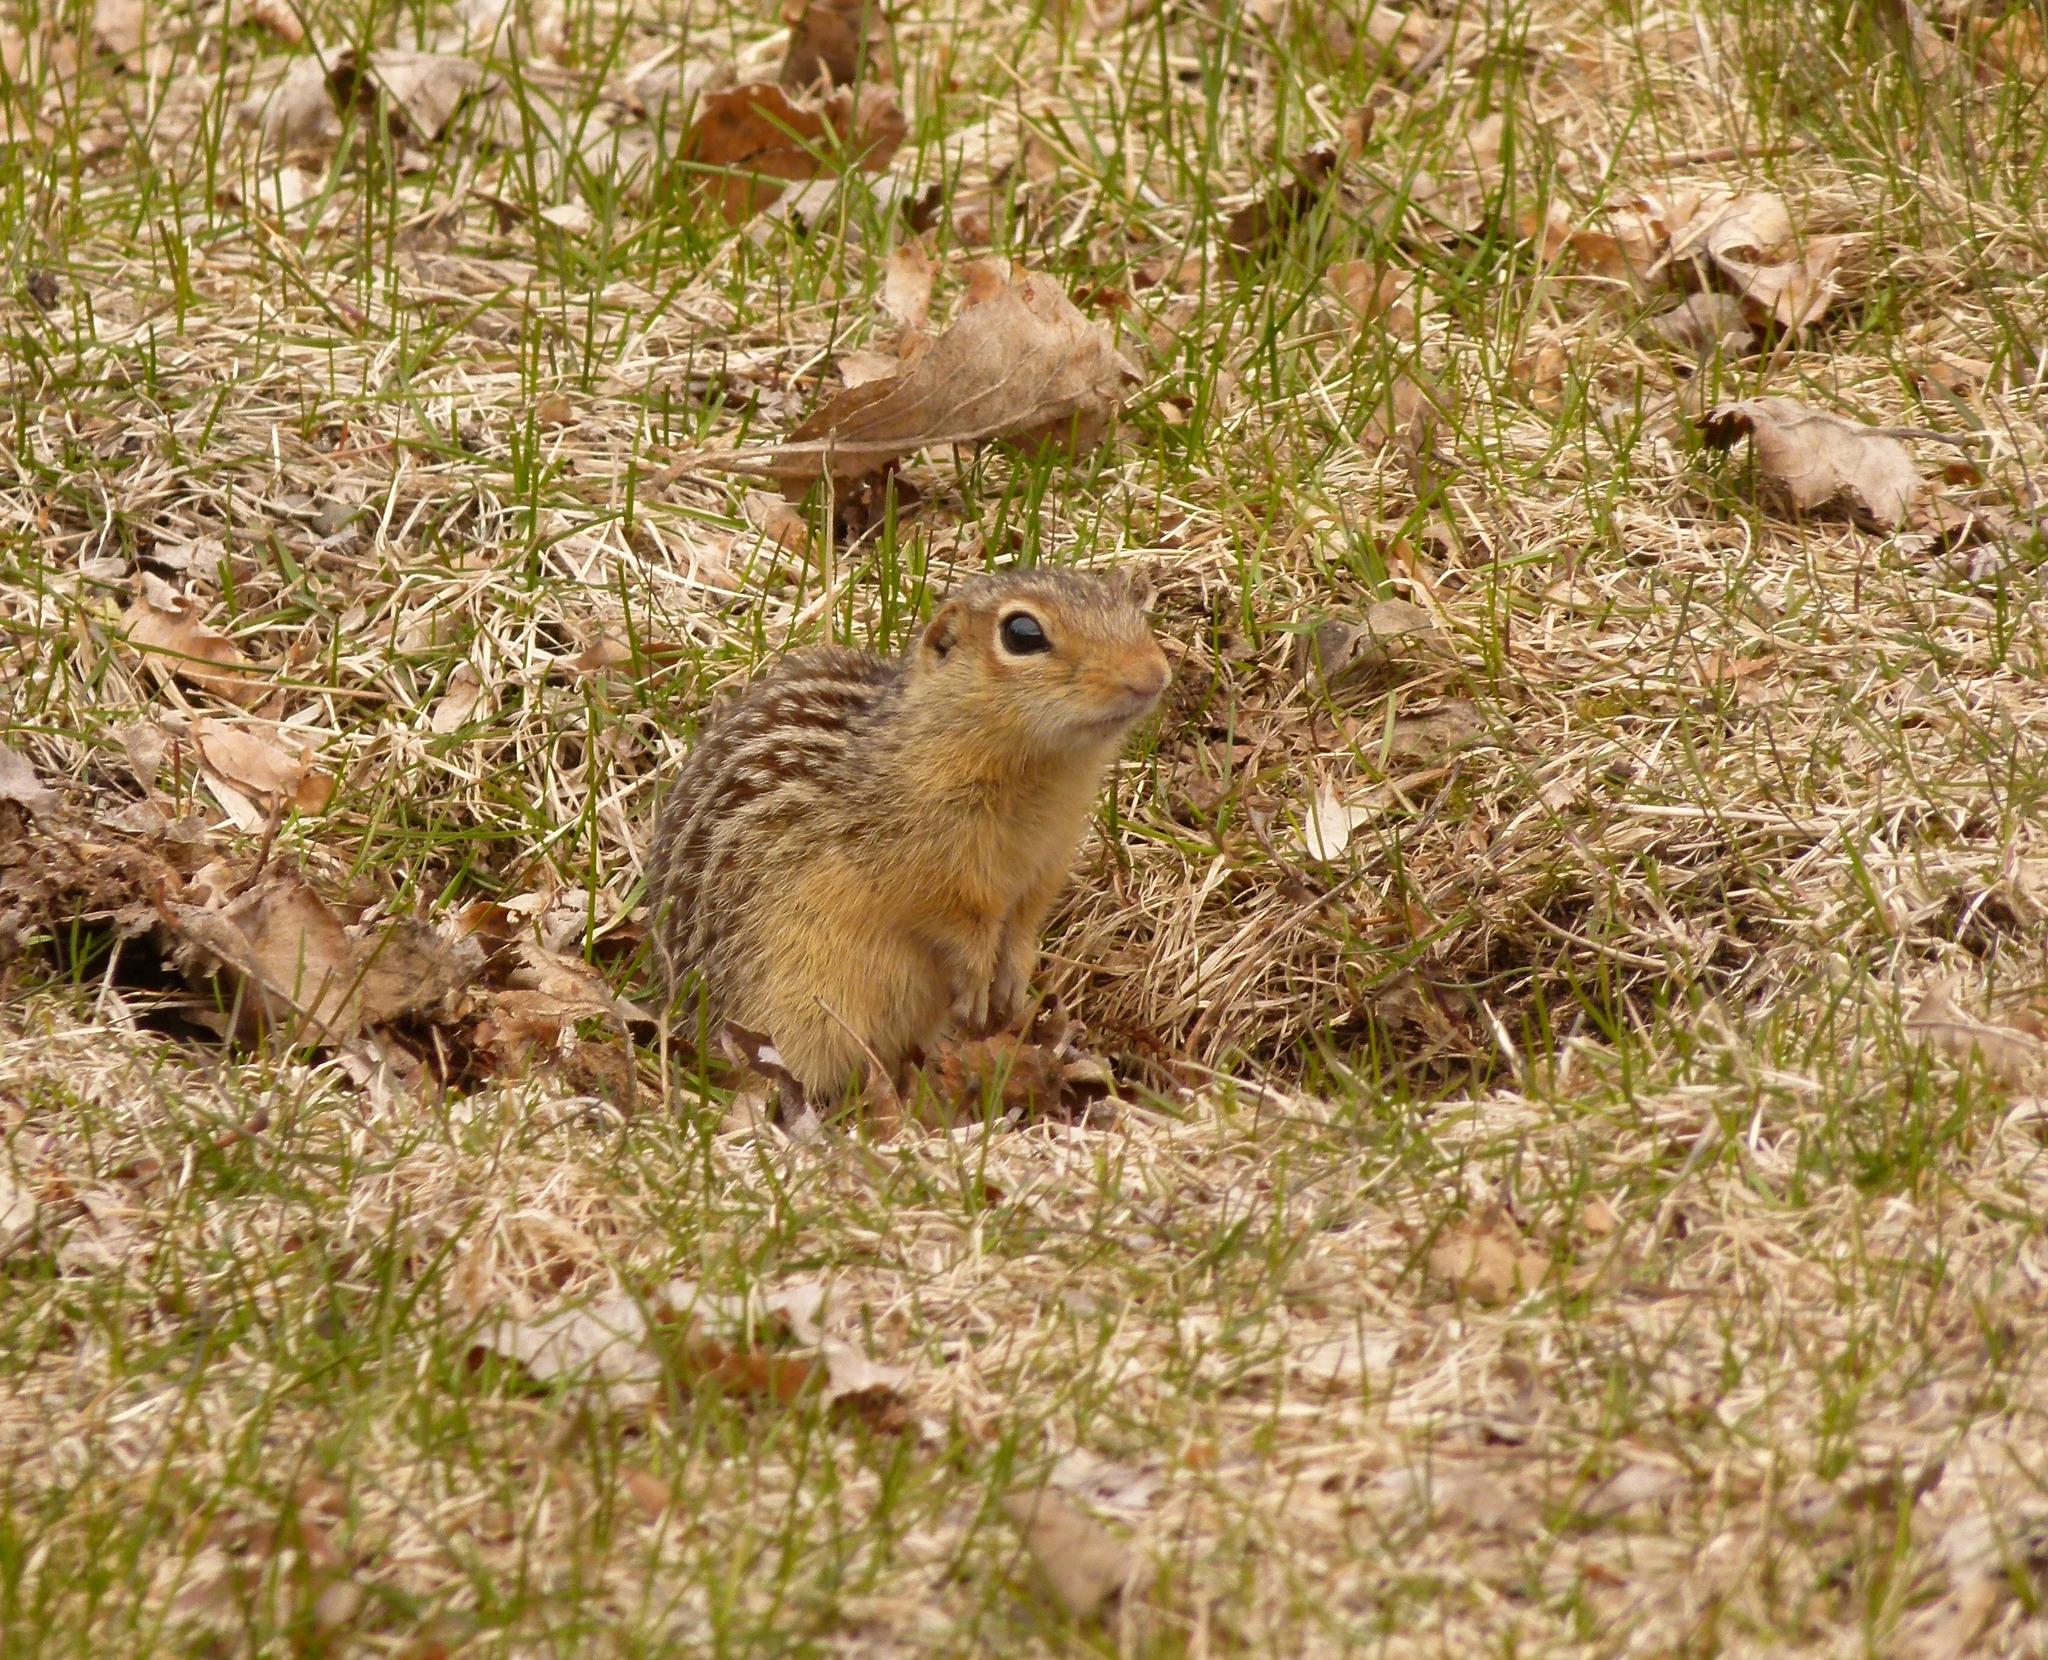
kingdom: Animalia
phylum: Chordata
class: Mammalia
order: Rodentia
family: Sciuridae
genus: Ictidomys
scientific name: Ictidomys tridecemlineatus
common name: Thirteen-lined ground squirrel
